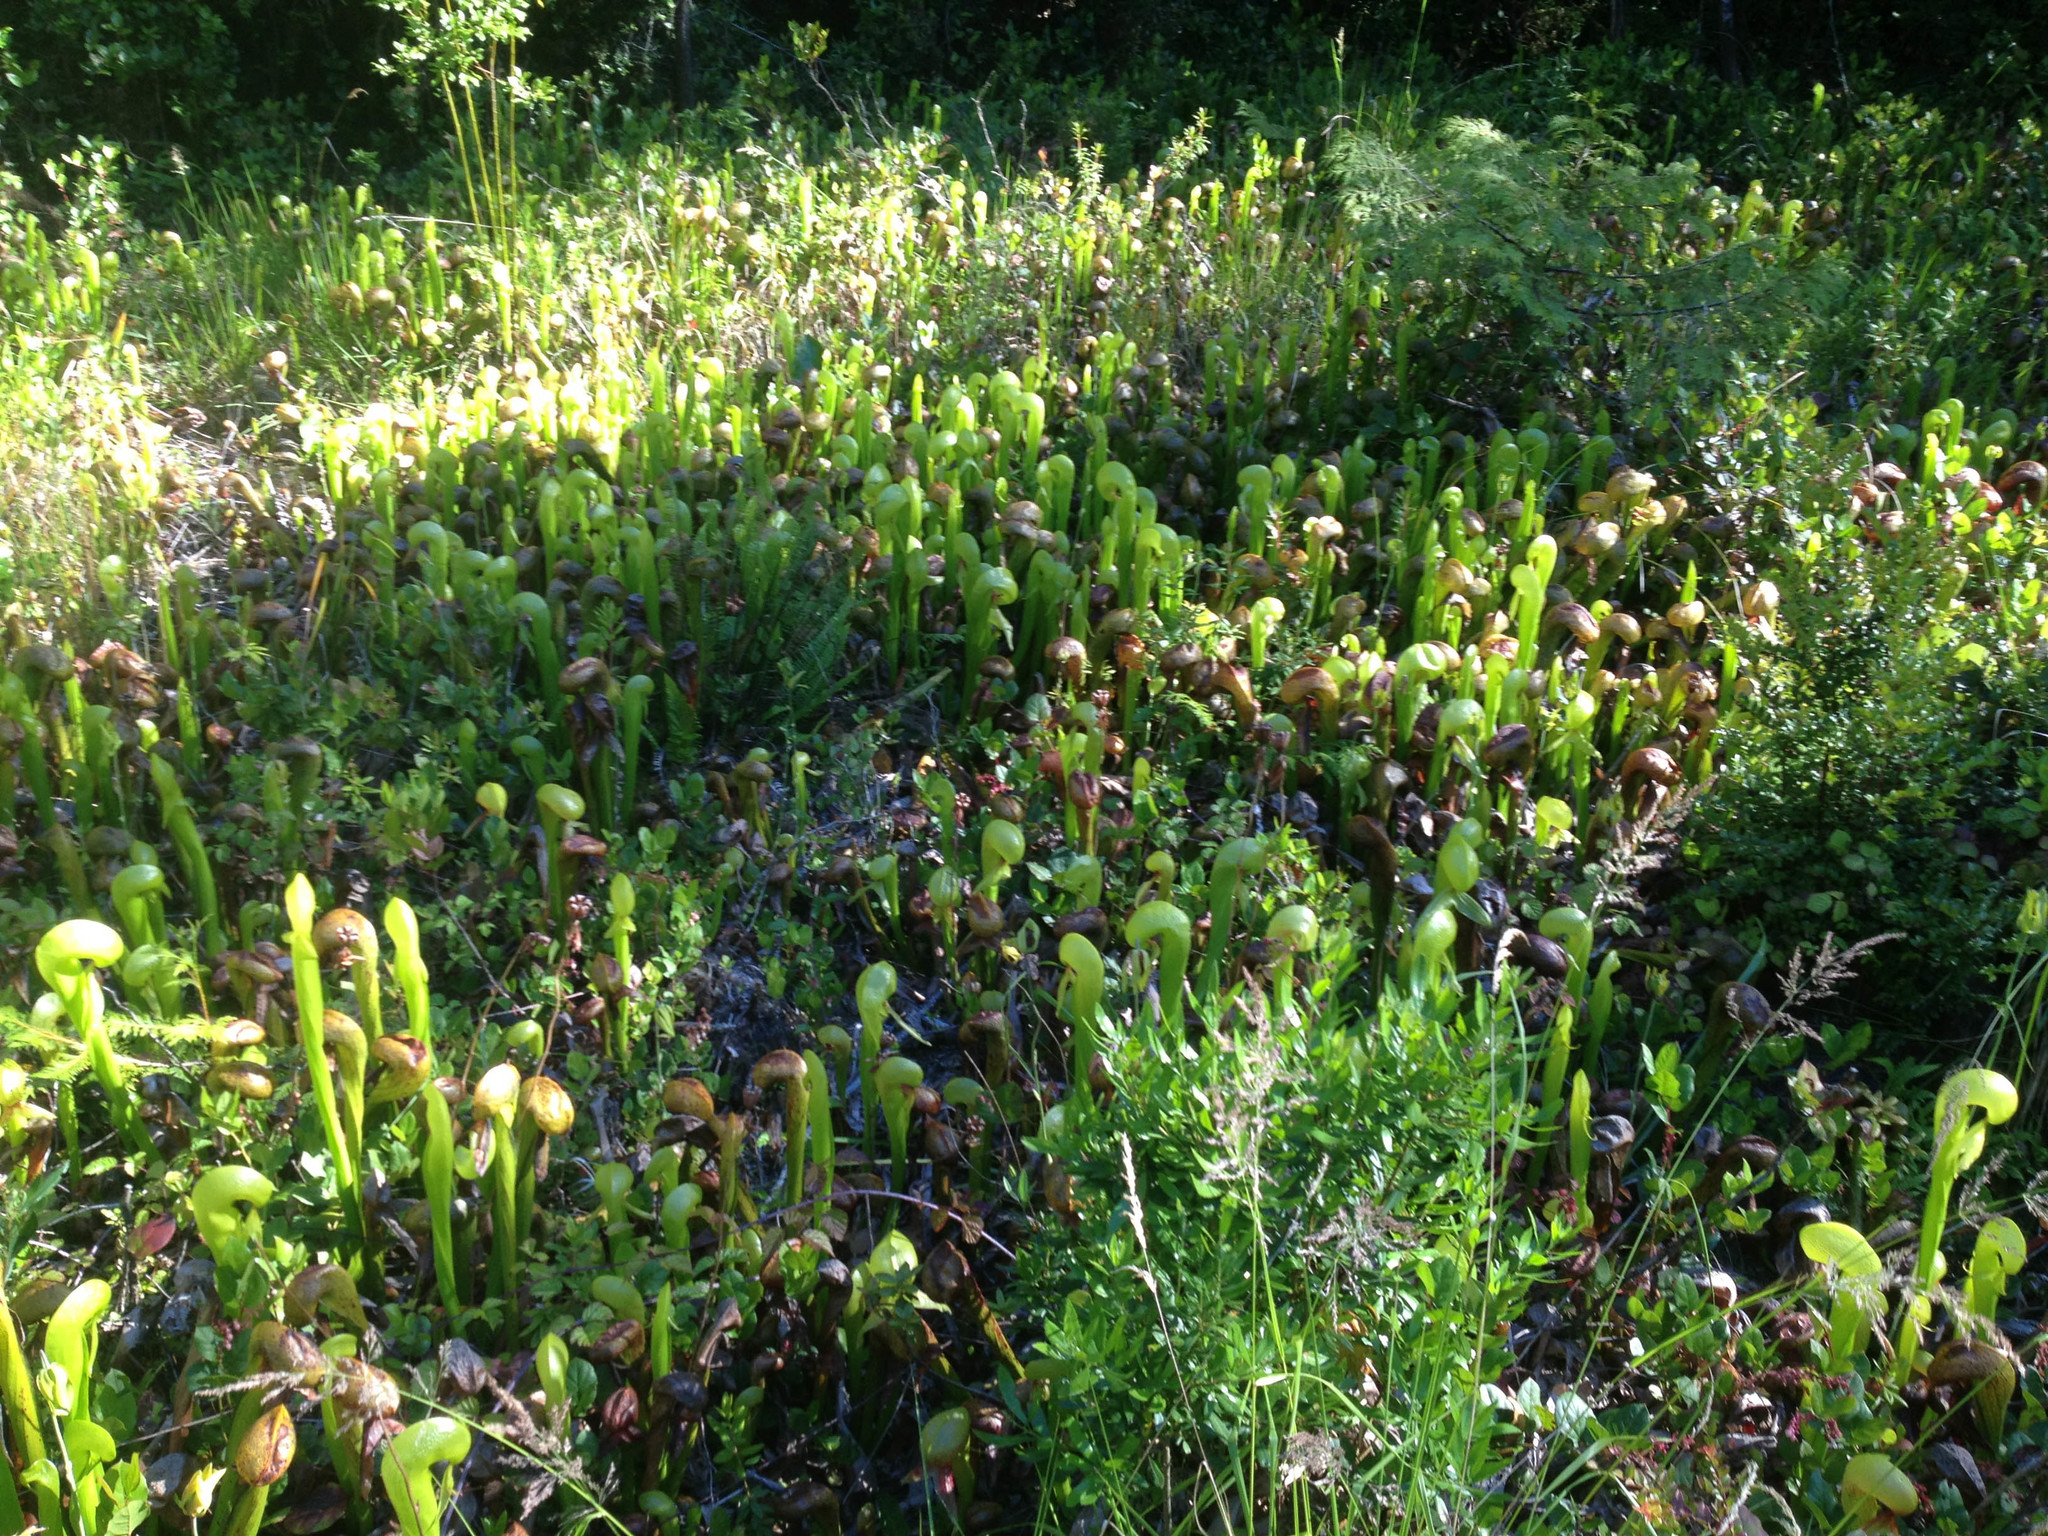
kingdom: Plantae
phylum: Tracheophyta
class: Magnoliopsida
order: Ericales
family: Sarraceniaceae
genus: Darlingtonia
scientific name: Darlingtonia californica
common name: California pitcher plant
